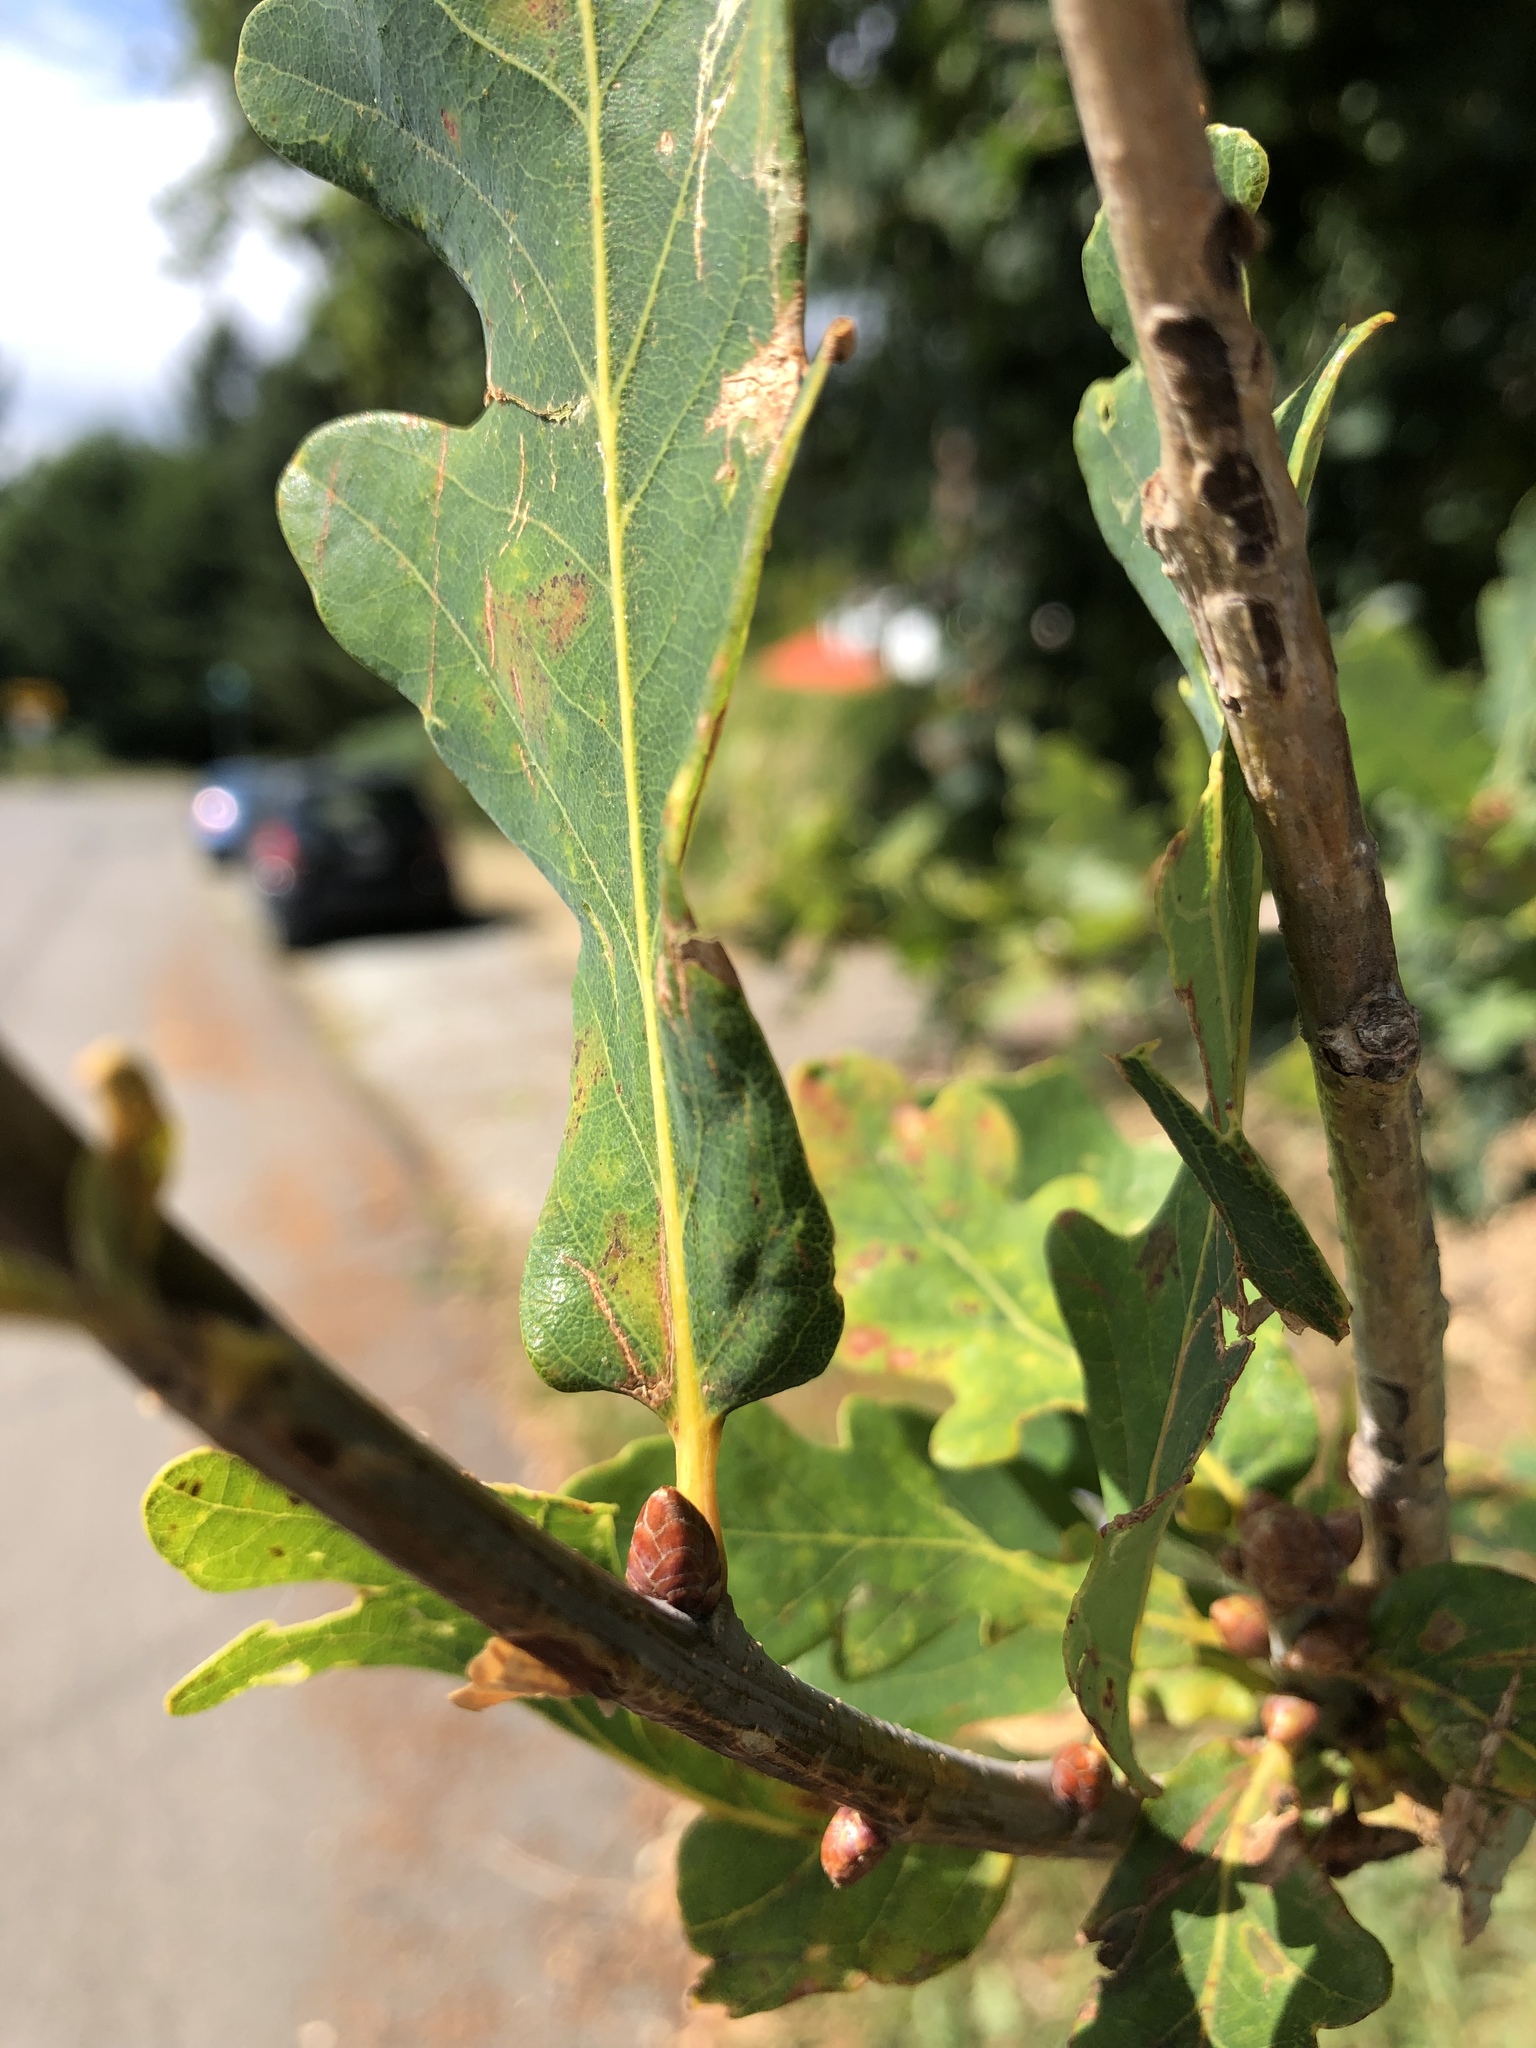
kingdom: Plantae
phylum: Tracheophyta
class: Magnoliopsida
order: Fagales
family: Fagaceae
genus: Quercus
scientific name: Quercus robur
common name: Pedunculate oak
